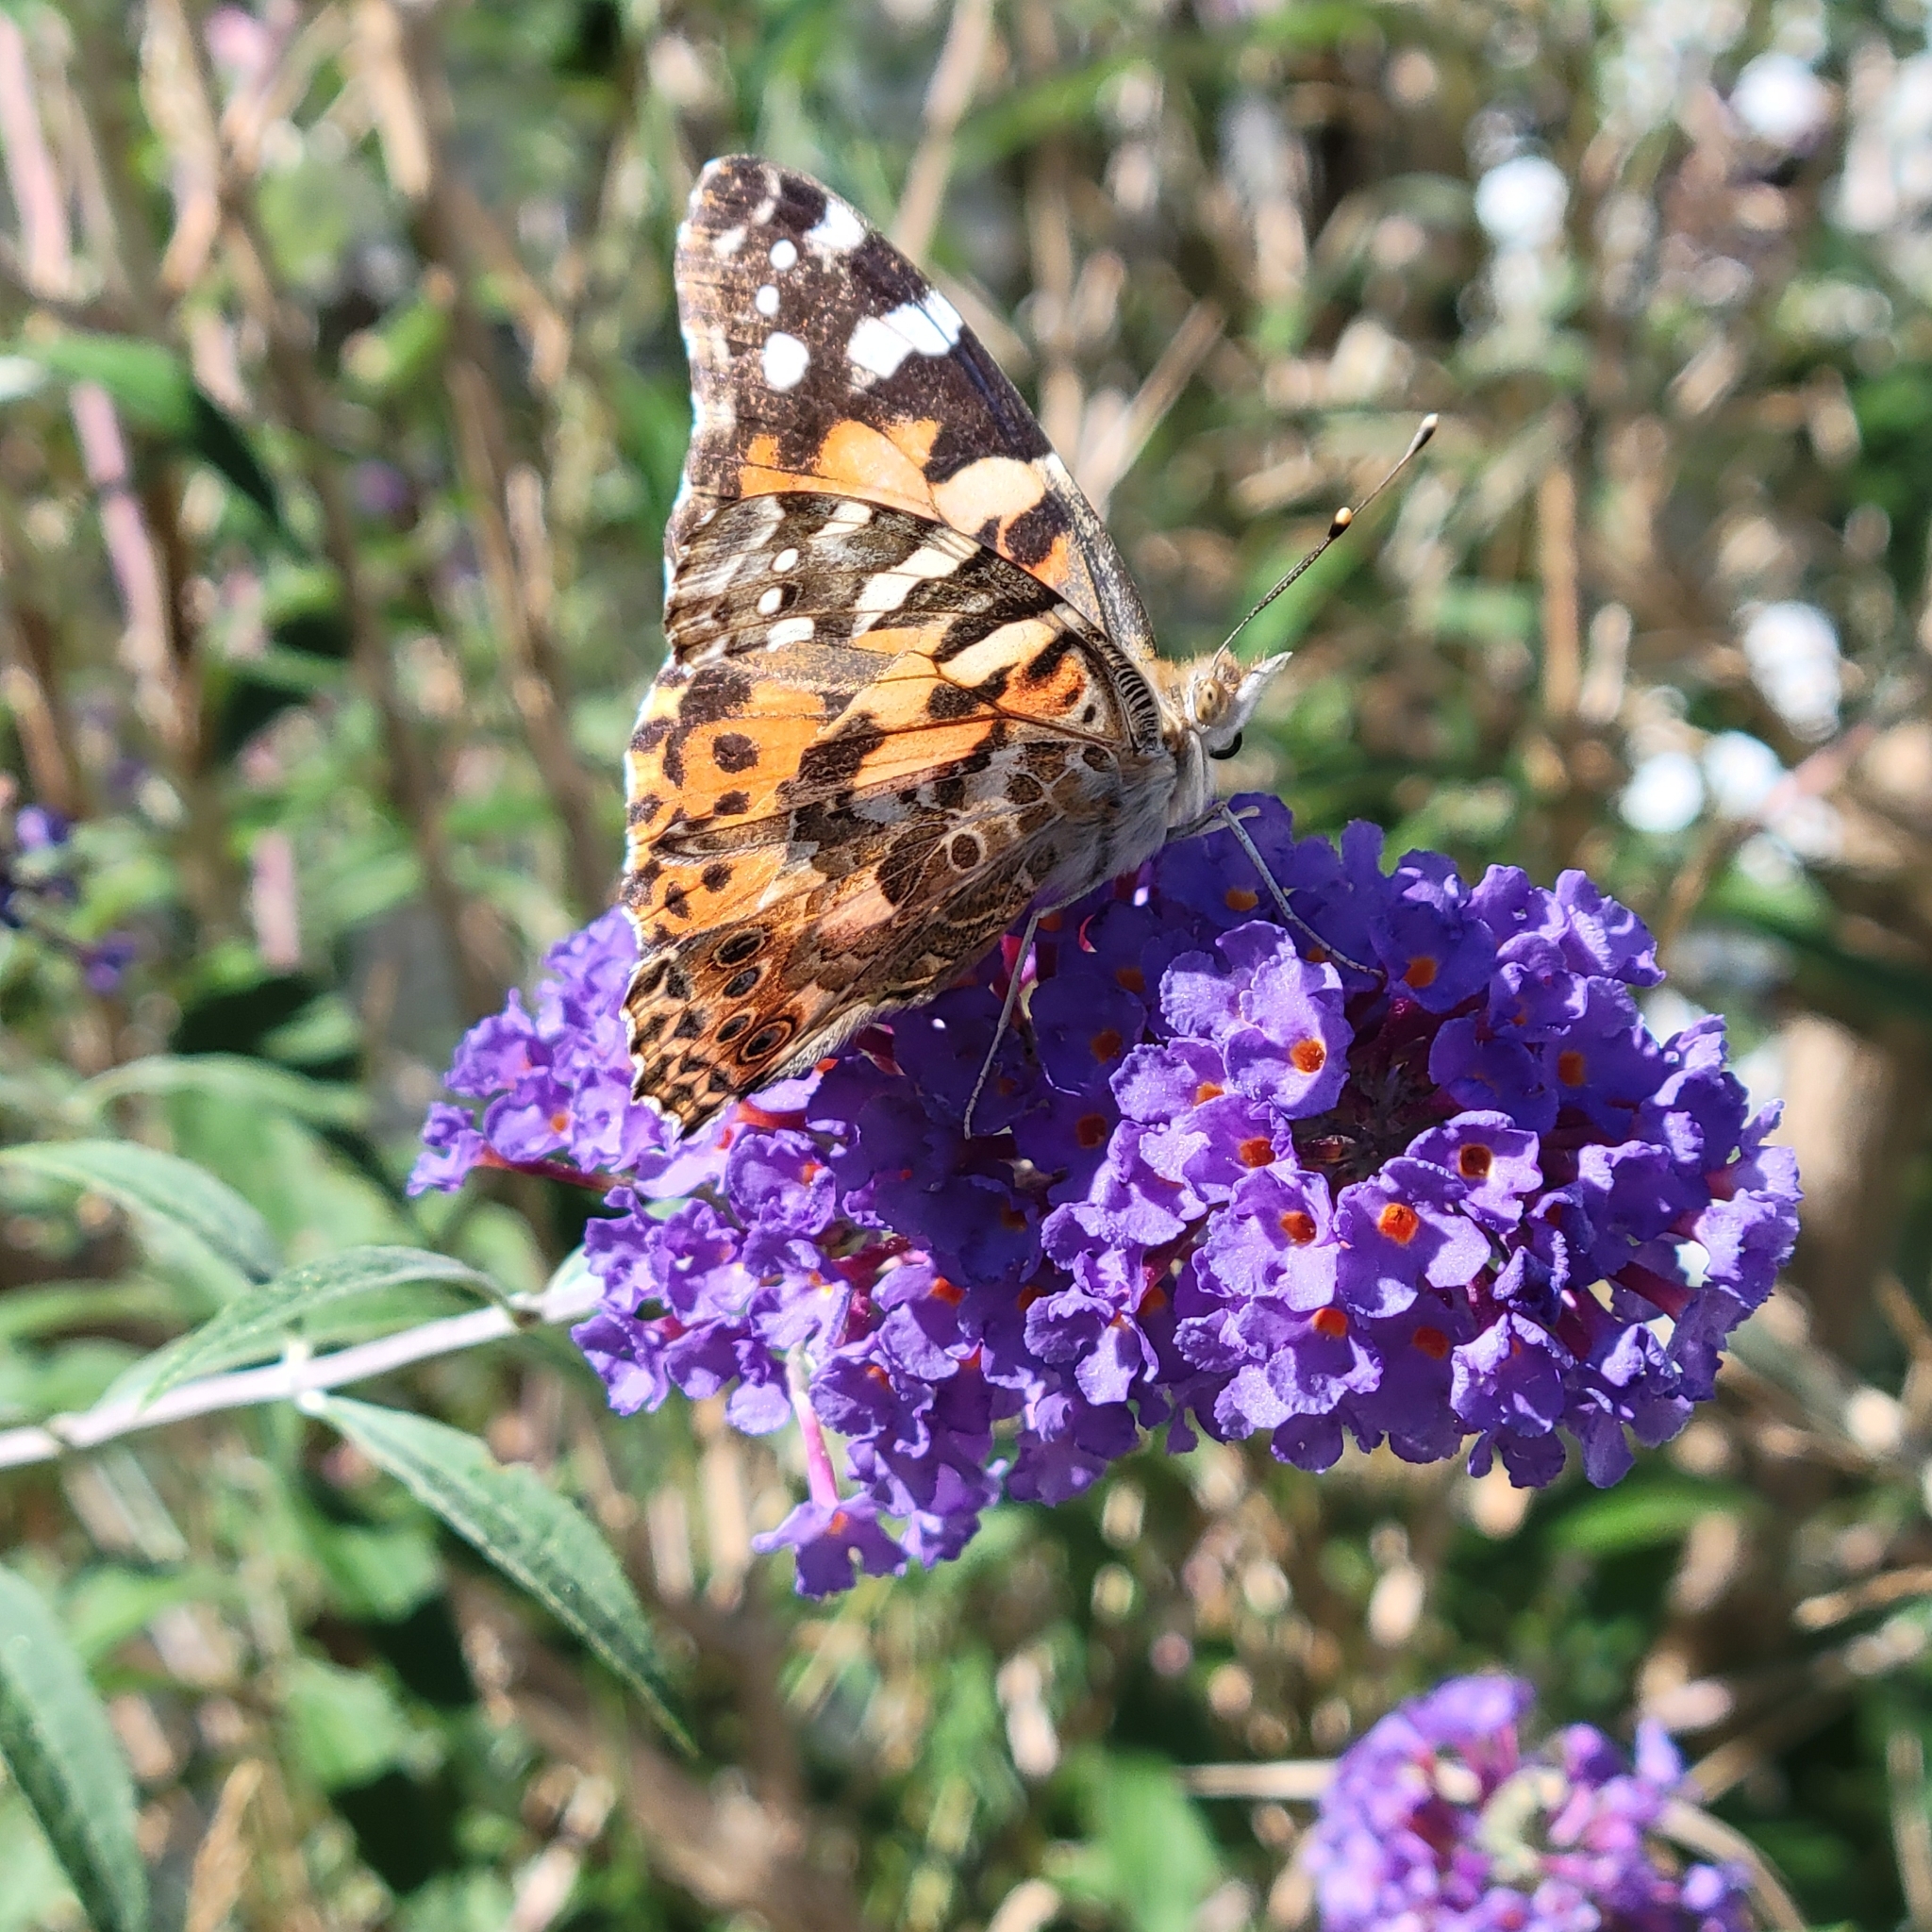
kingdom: Animalia
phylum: Arthropoda
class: Insecta
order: Lepidoptera
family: Nymphalidae
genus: Vanessa
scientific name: Vanessa cardui
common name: Painted lady
